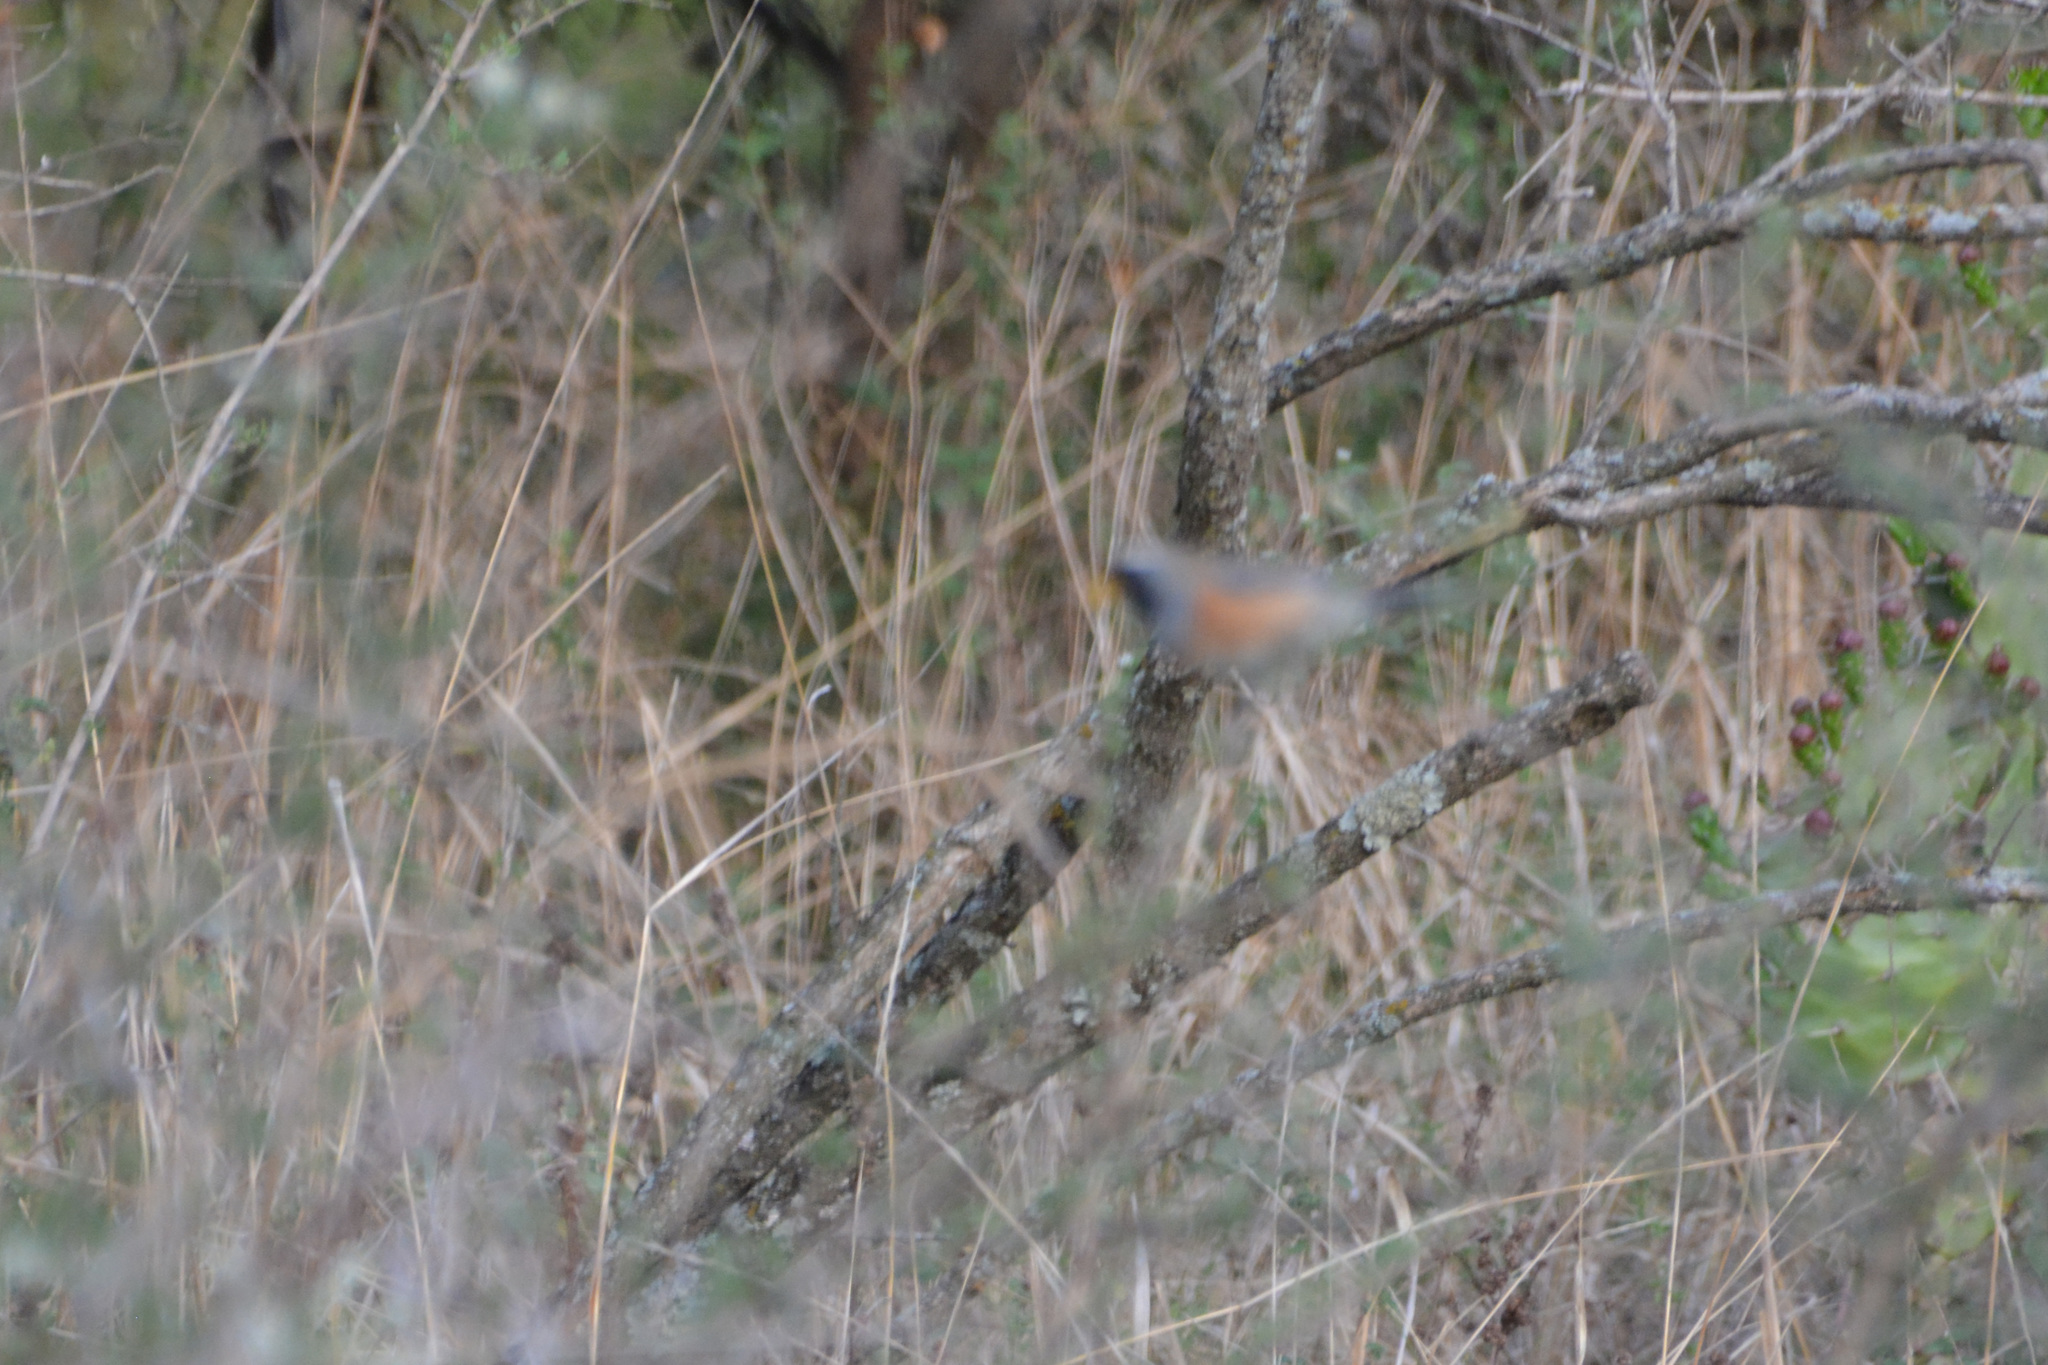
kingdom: Animalia
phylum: Chordata
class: Aves
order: Passeriformes
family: Thraupidae
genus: Saltatricula
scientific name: Saltatricula multicolor
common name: Many-colored chaco finch
